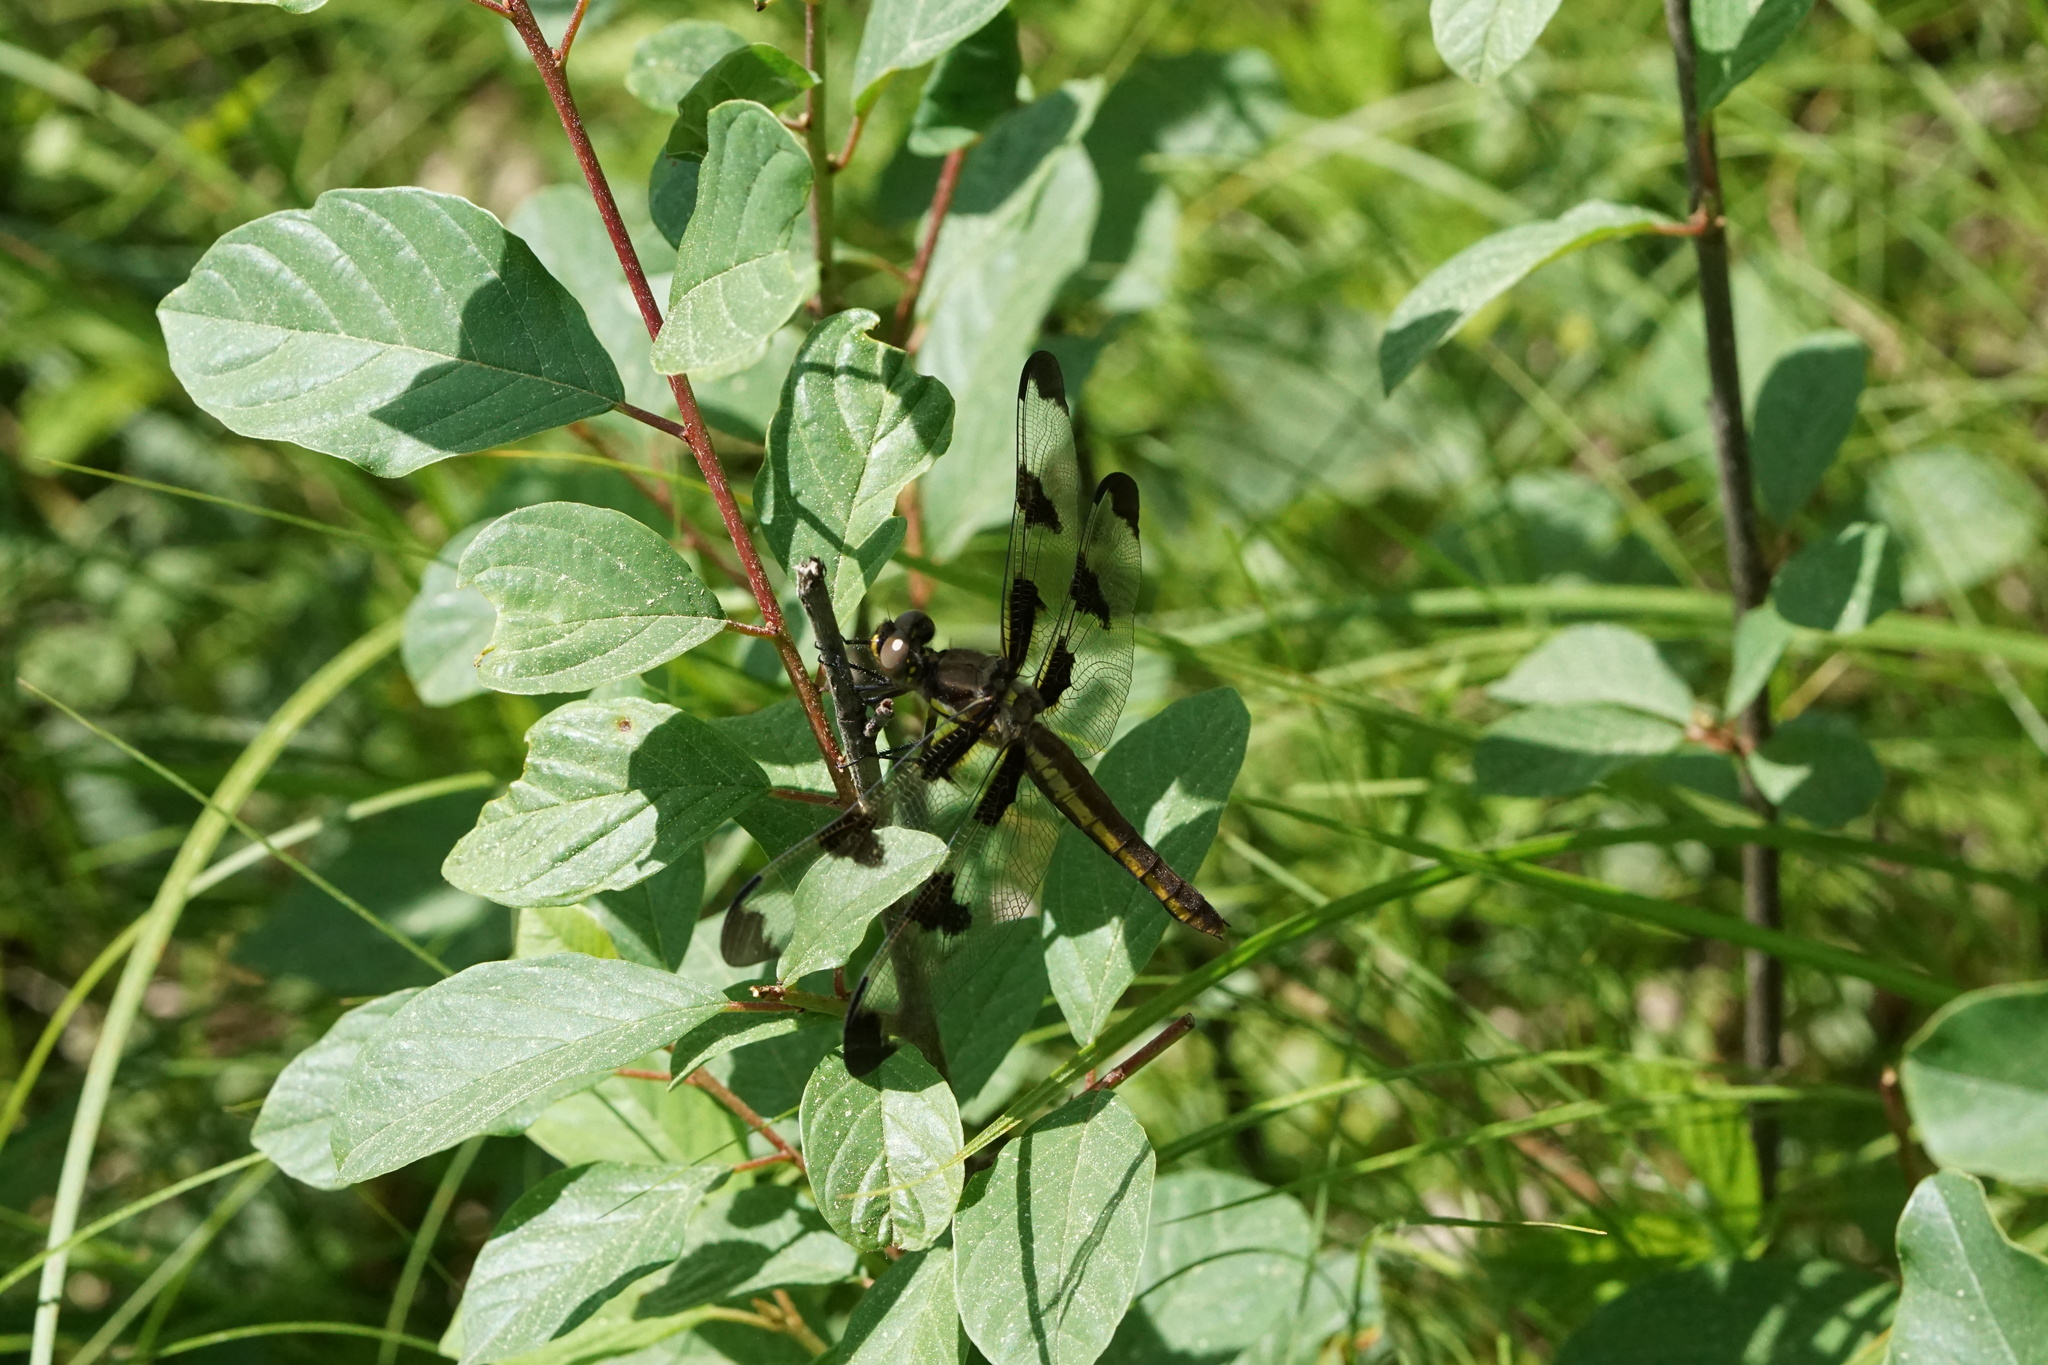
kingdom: Animalia
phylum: Arthropoda
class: Insecta
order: Odonata
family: Libellulidae
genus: Libellula
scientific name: Libellula pulchella
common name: Twelve-spotted skimmer
